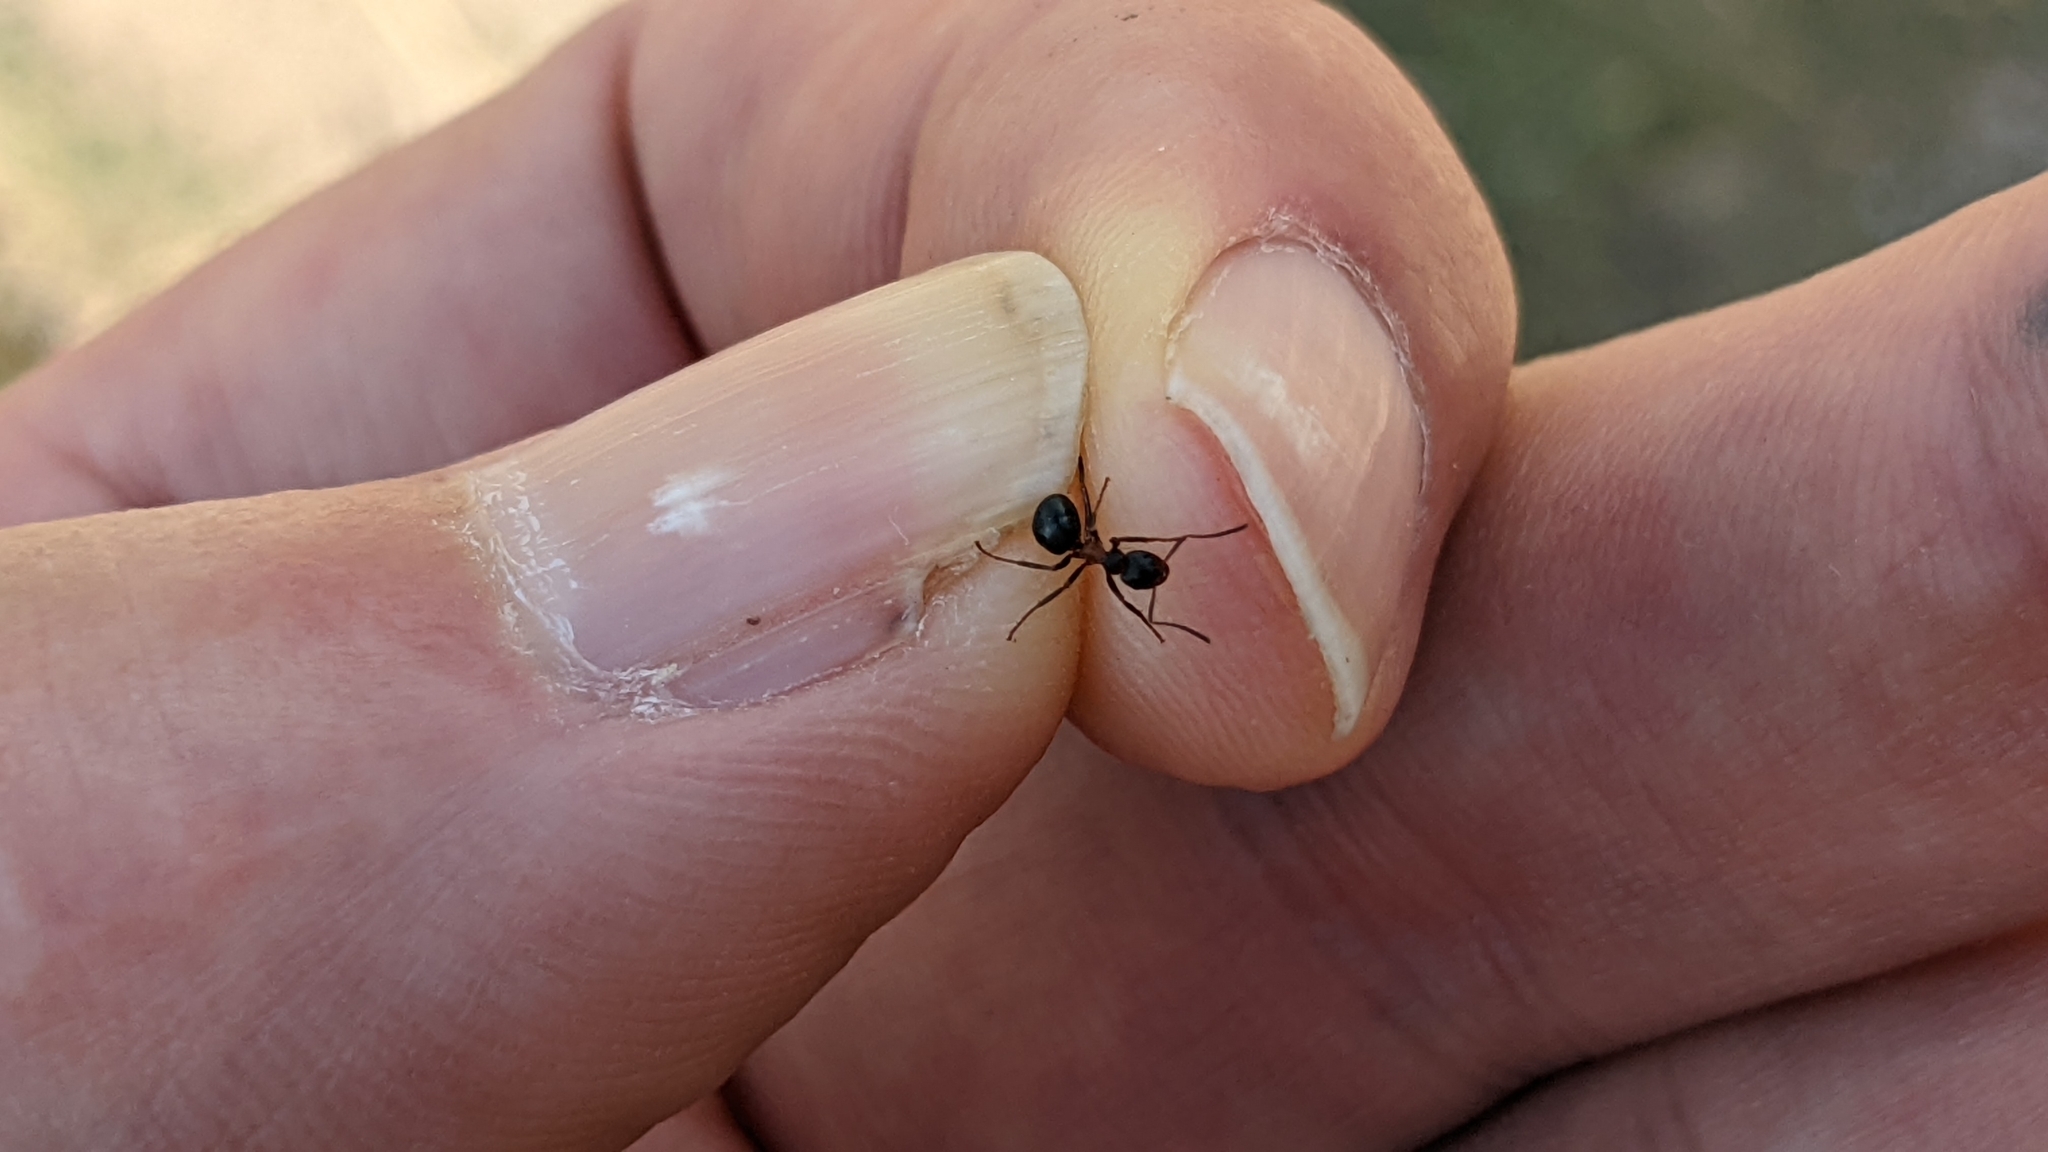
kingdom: Animalia
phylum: Arthropoda
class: Insecta
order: Hymenoptera
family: Formicidae
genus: Formica
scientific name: Formica
